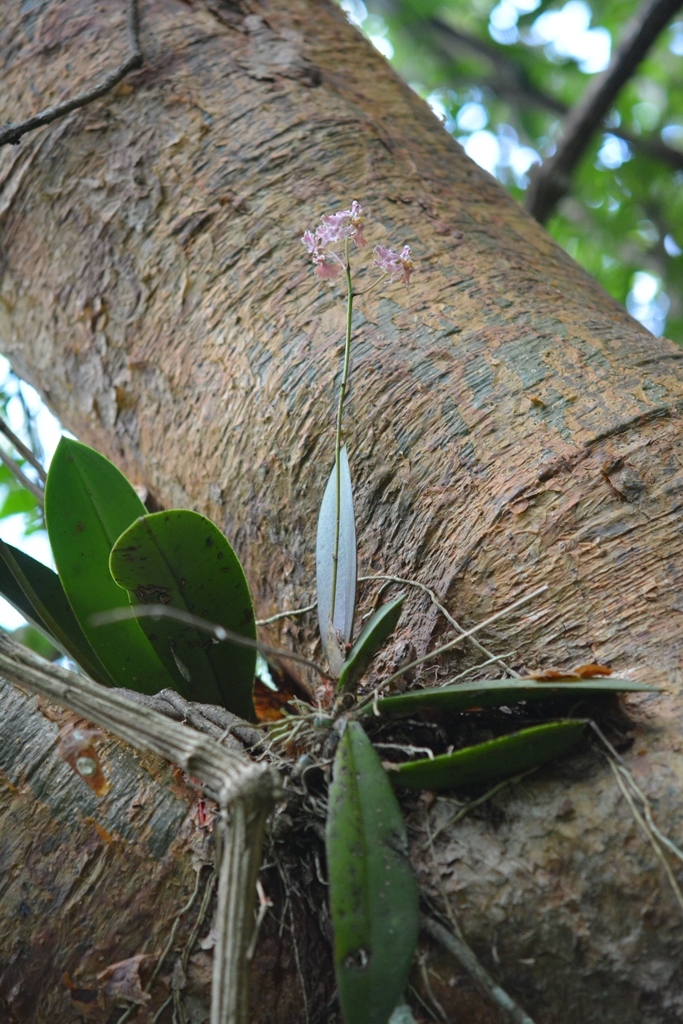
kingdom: Plantae
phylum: Tracheophyta
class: Liliopsida
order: Asparagales
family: Orchidaceae
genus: Trichocentrum
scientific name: Trichocentrum andreanum
